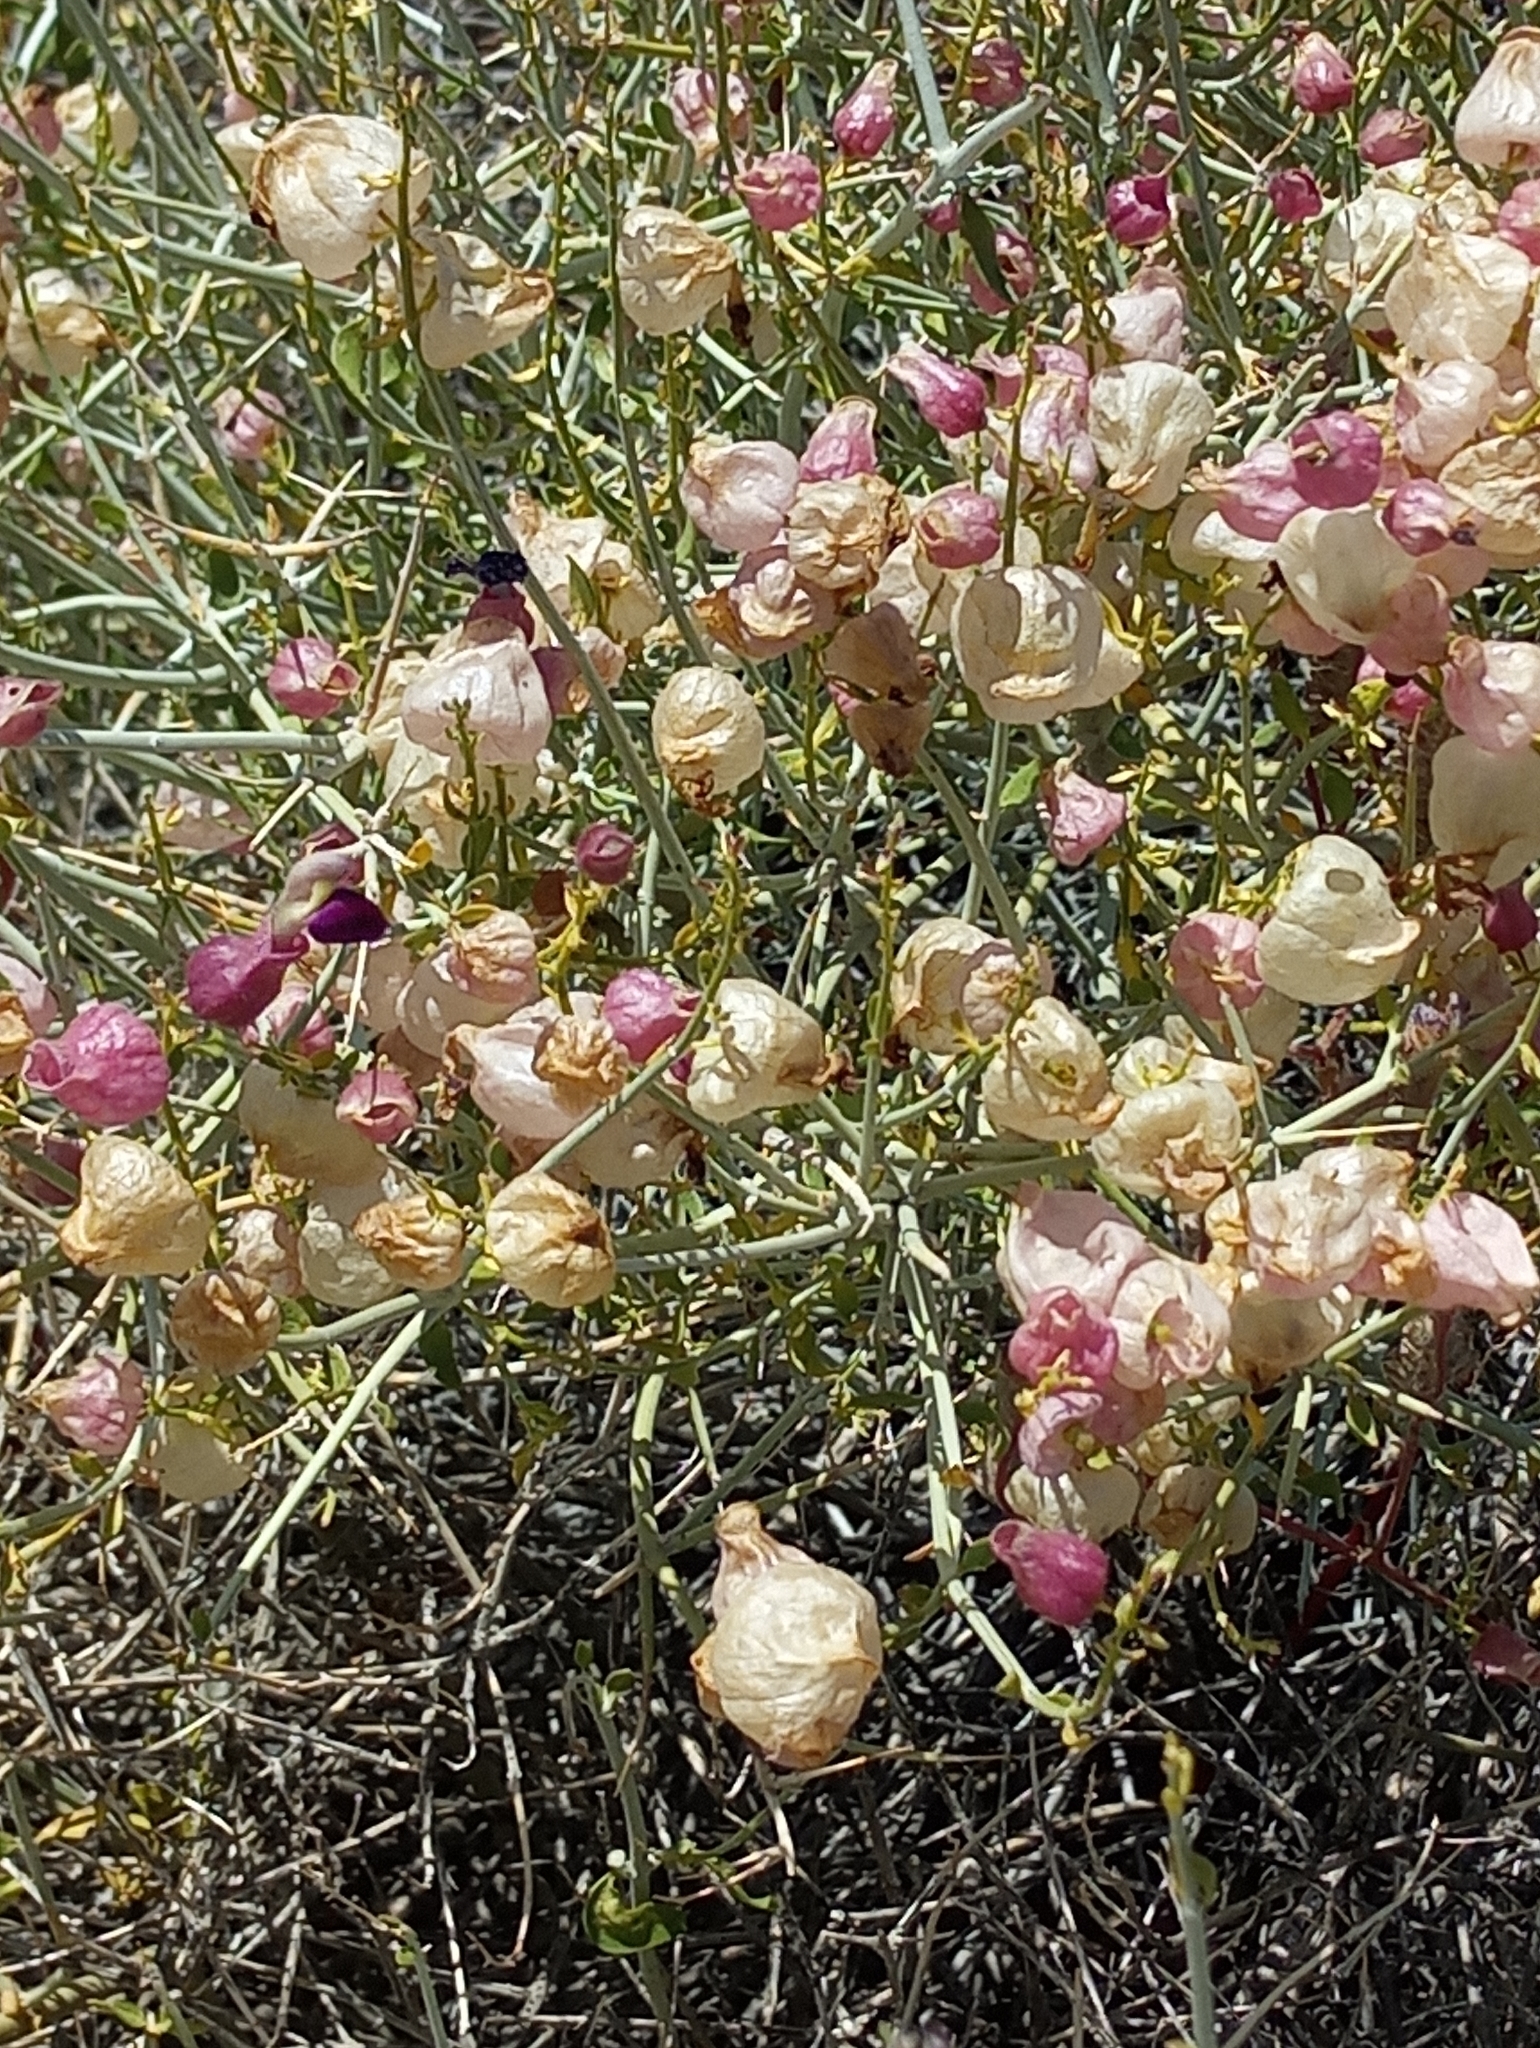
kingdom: Plantae
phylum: Tracheophyta
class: Magnoliopsida
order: Lamiales
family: Lamiaceae
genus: Scutellaria
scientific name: Scutellaria mexicana
